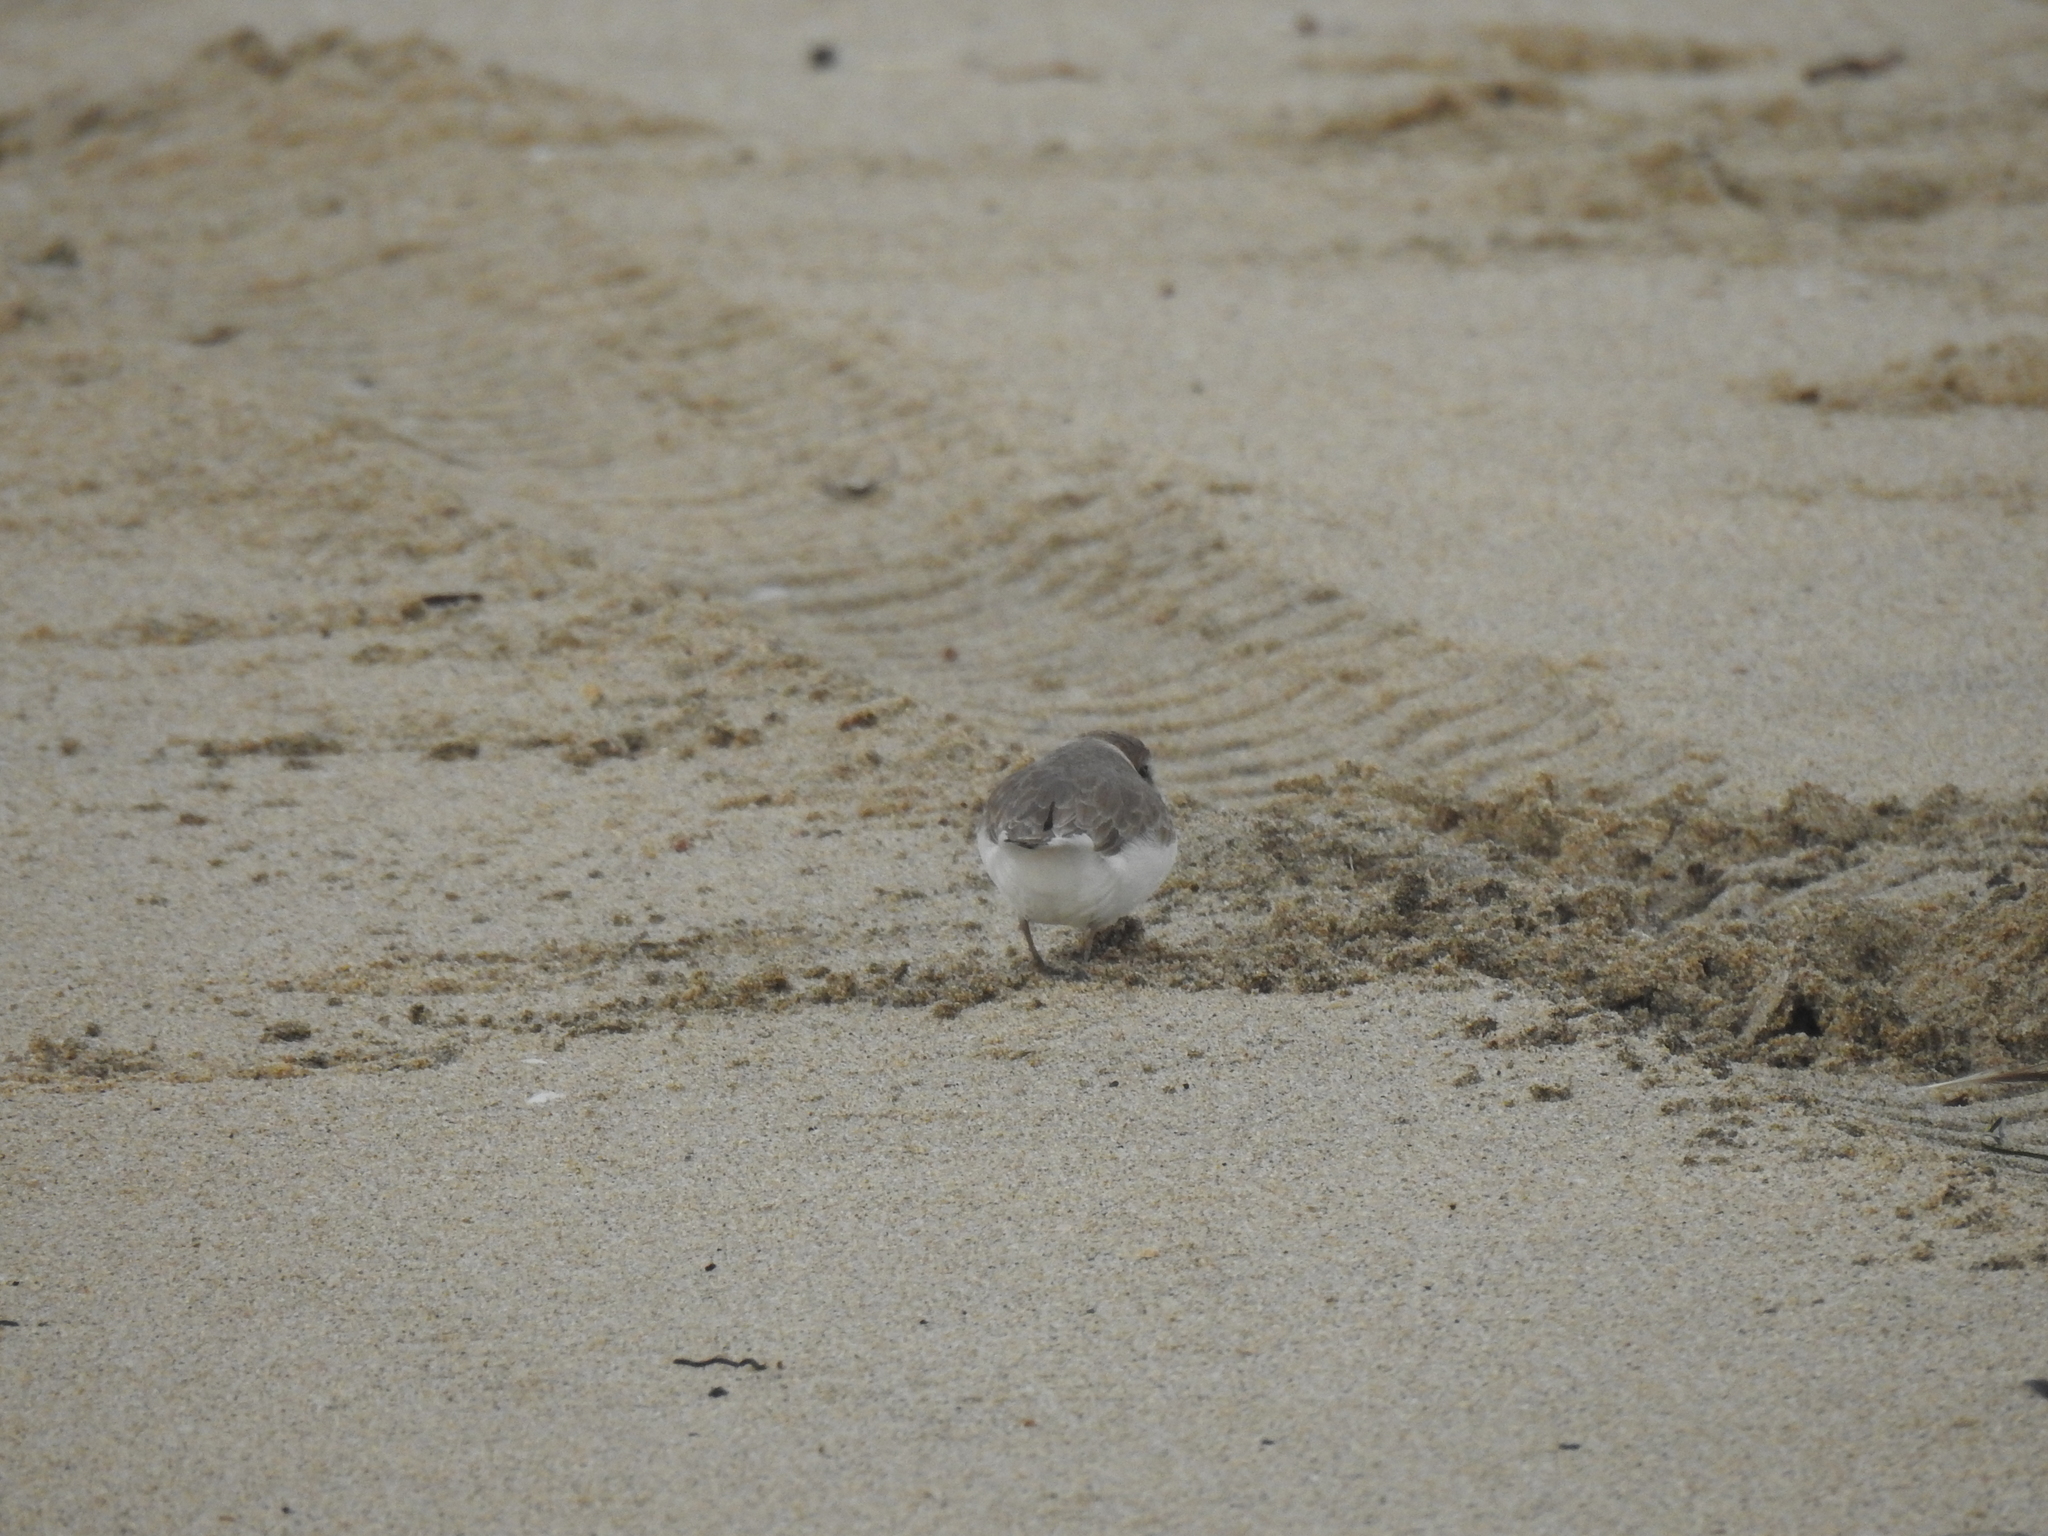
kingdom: Animalia
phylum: Chordata
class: Aves
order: Charadriiformes
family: Charadriidae
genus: Anarhynchus
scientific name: Anarhynchus
